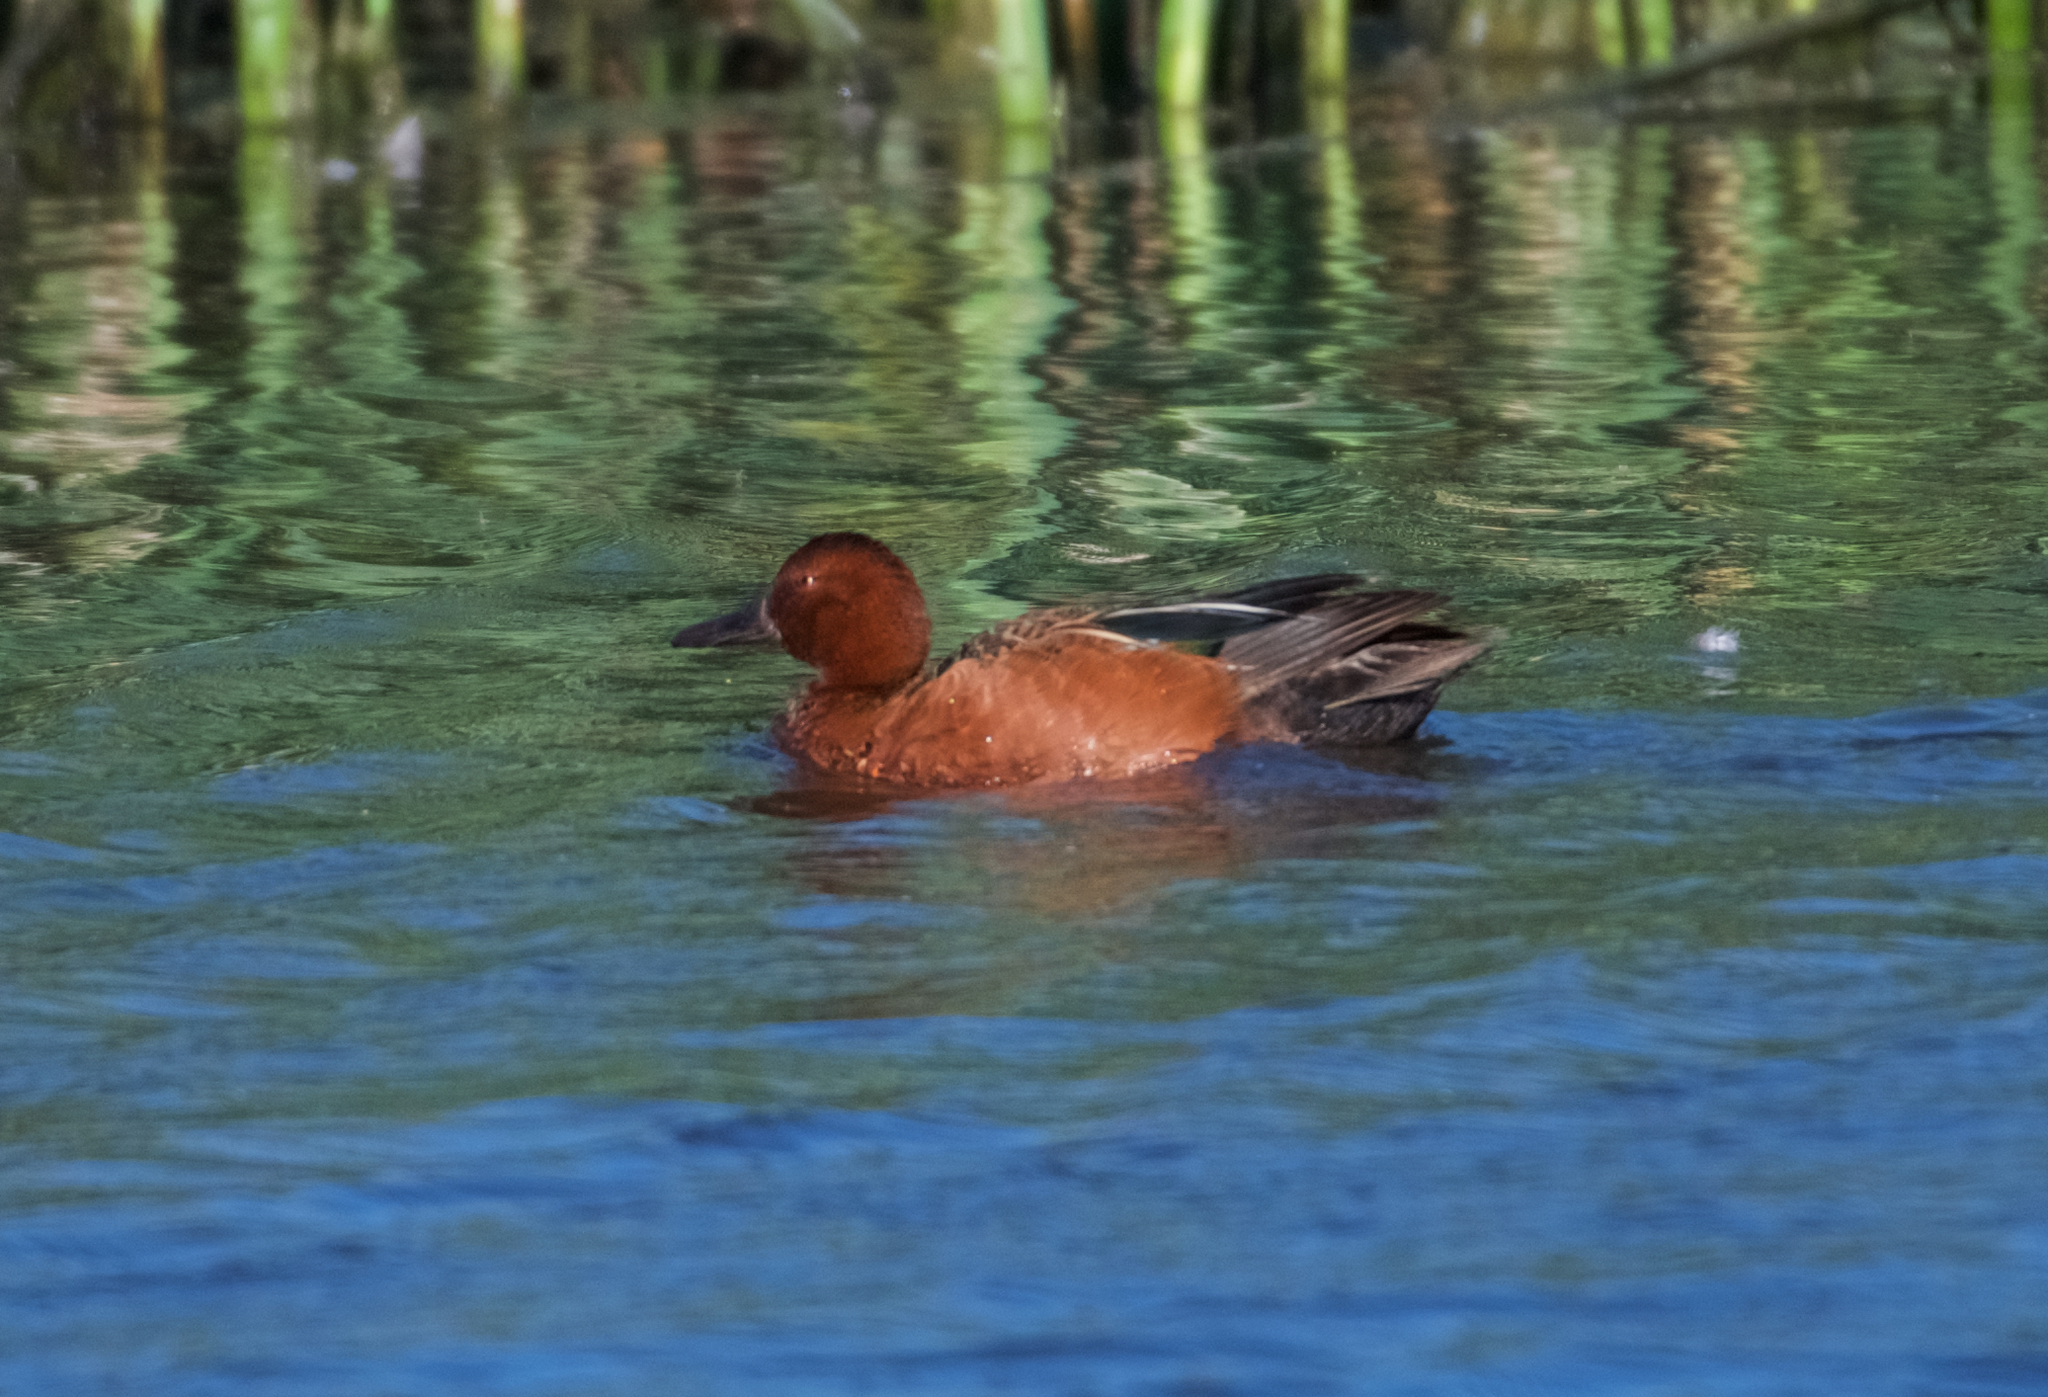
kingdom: Animalia
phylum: Chordata
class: Aves
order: Anseriformes
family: Anatidae
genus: Spatula
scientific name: Spatula cyanoptera
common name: Cinnamon teal
